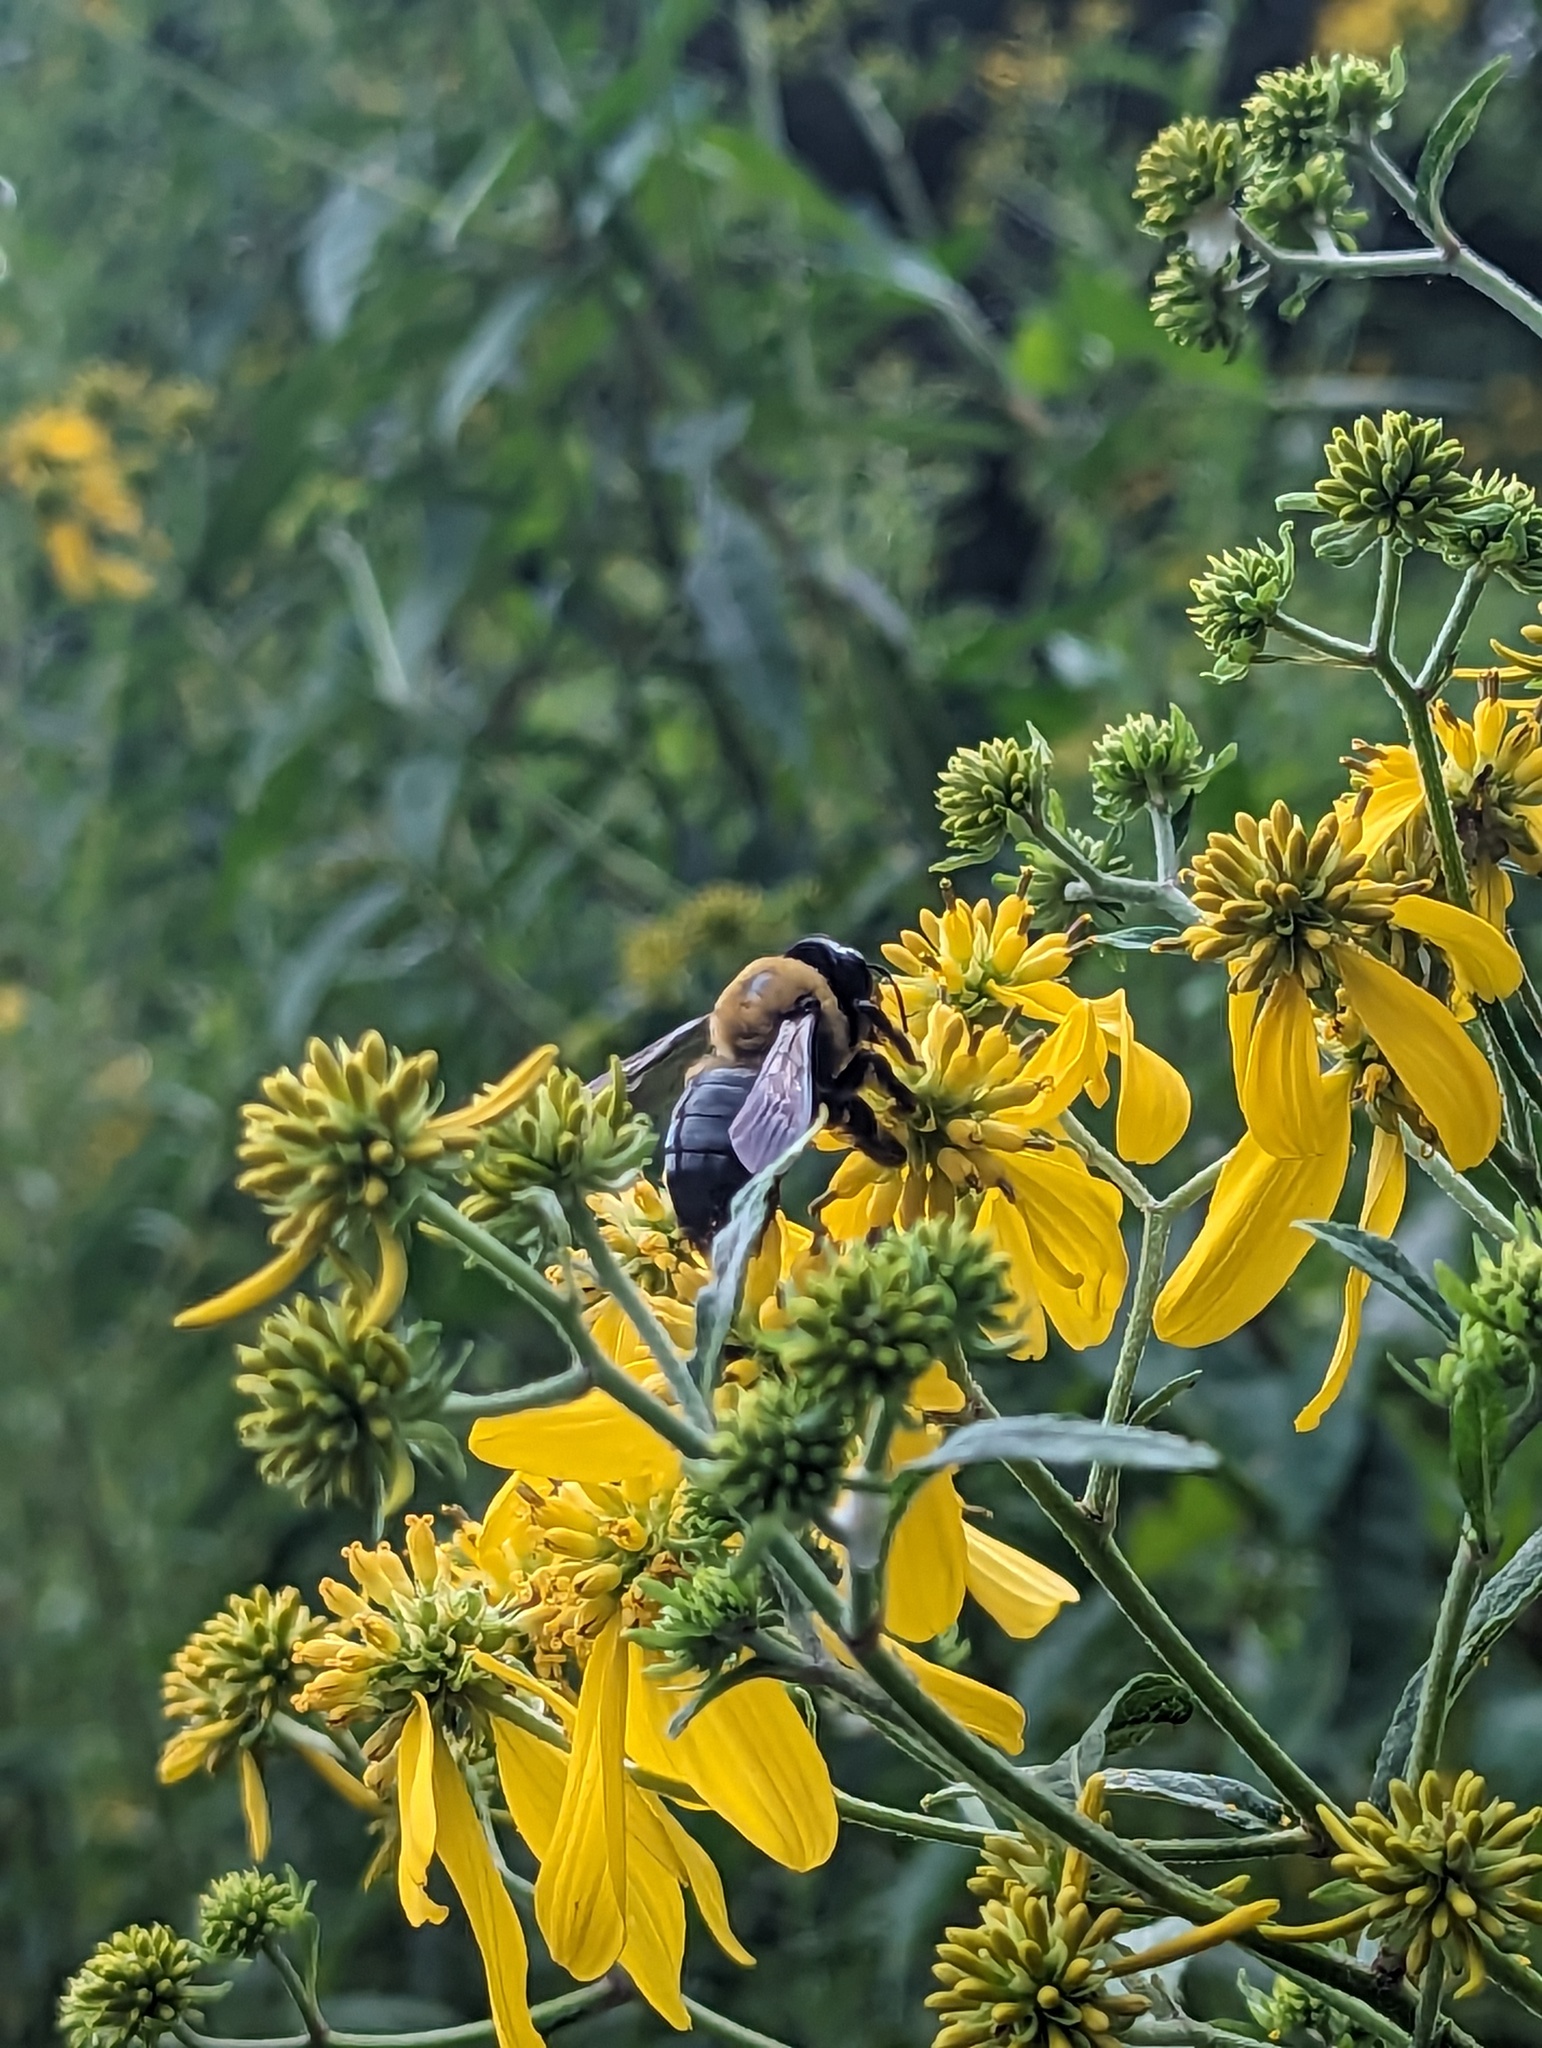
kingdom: Animalia
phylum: Arthropoda
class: Insecta
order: Hymenoptera
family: Apidae
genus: Xylocopa
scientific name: Xylocopa virginica
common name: Carpenter bee
